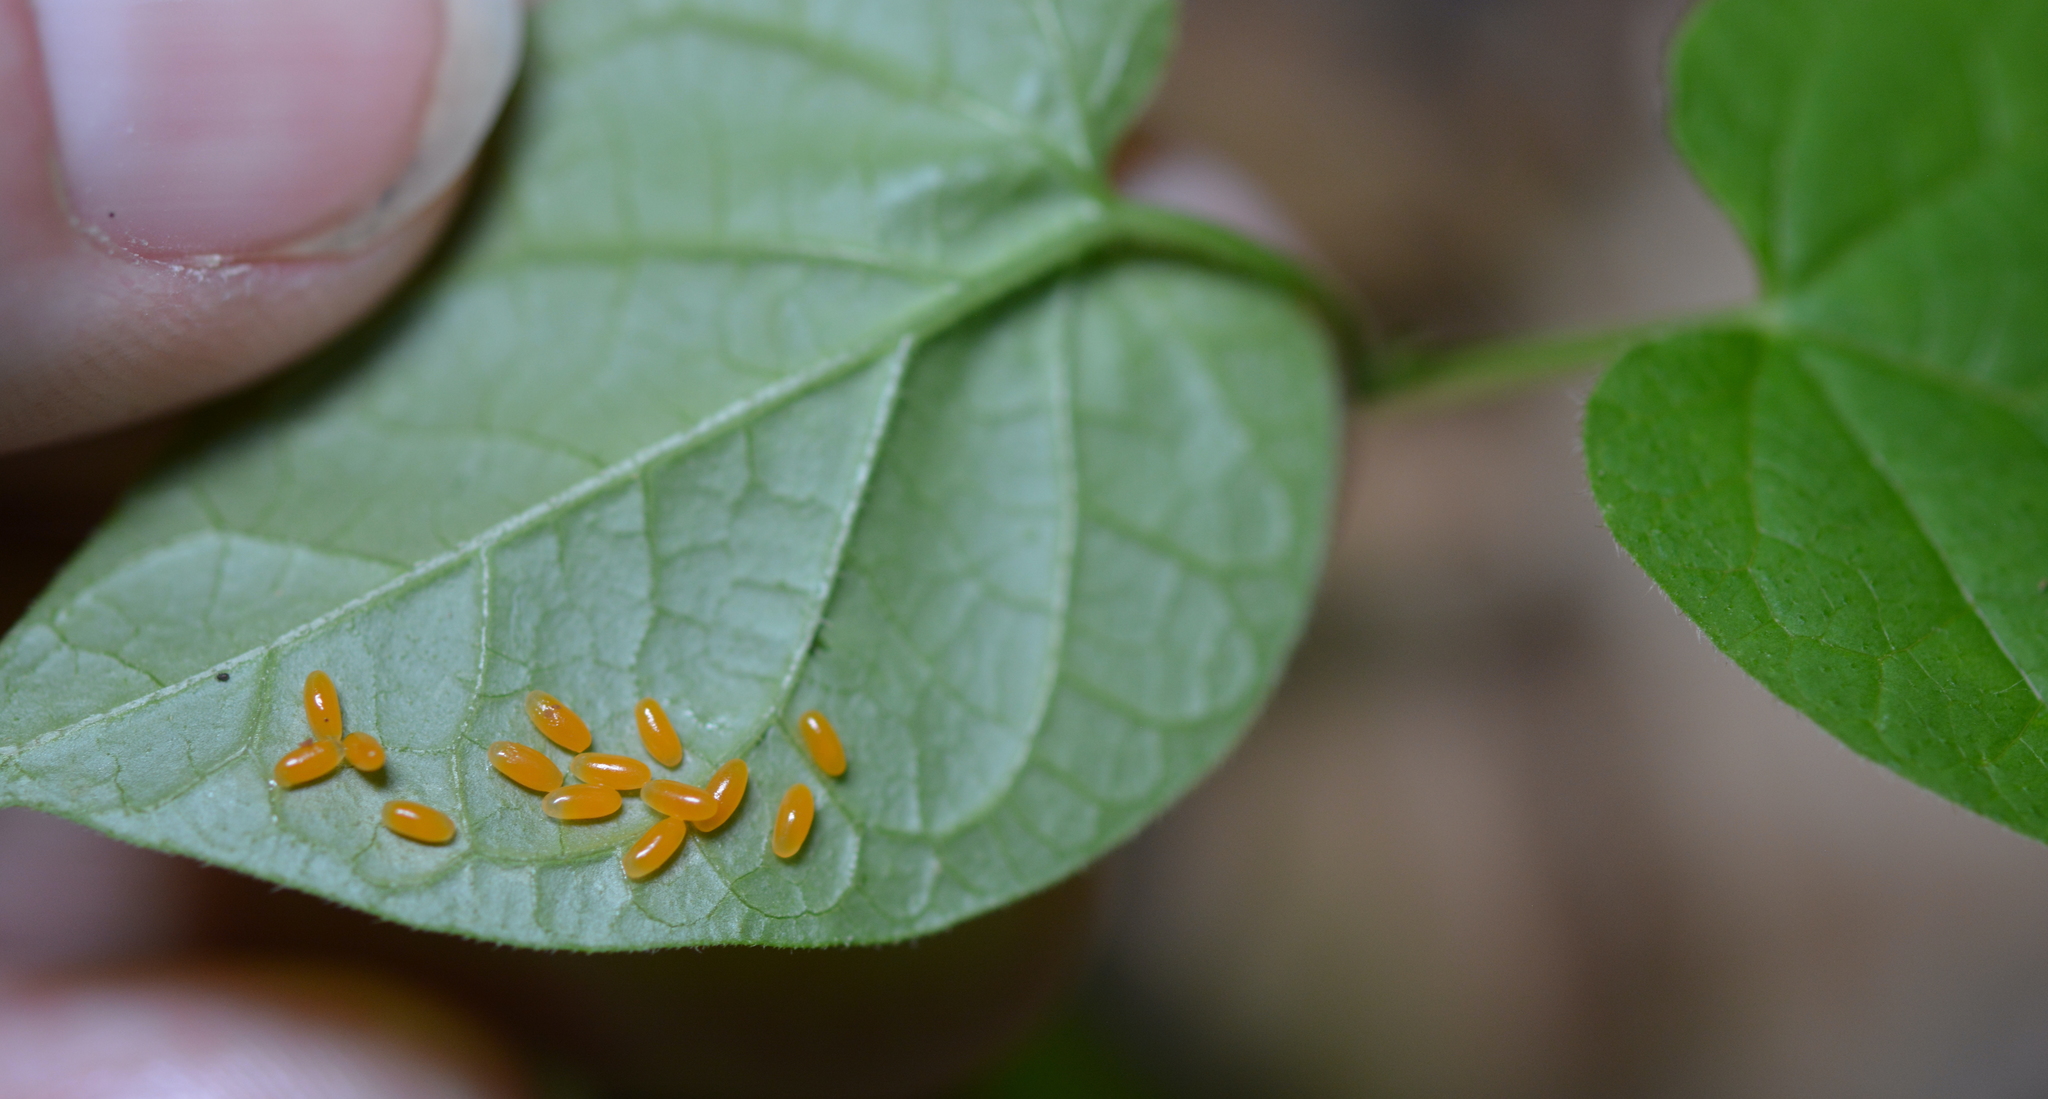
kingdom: Animalia
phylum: Arthropoda
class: Insecta
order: Coleoptera
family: Chrysomelidae
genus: Labidomera
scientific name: Labidomera clivicollis
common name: Swamp milkweed leaf beetle
